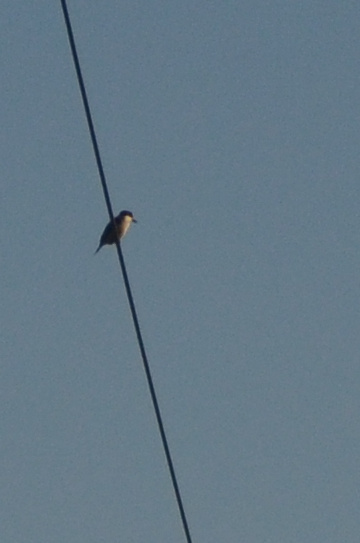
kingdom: Animalia
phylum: Chordata
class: Aves
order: Coraciiformes
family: Alcedinidae
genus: Todiramphus
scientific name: Todiramphus sanctus
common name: Sacred kingfisher
